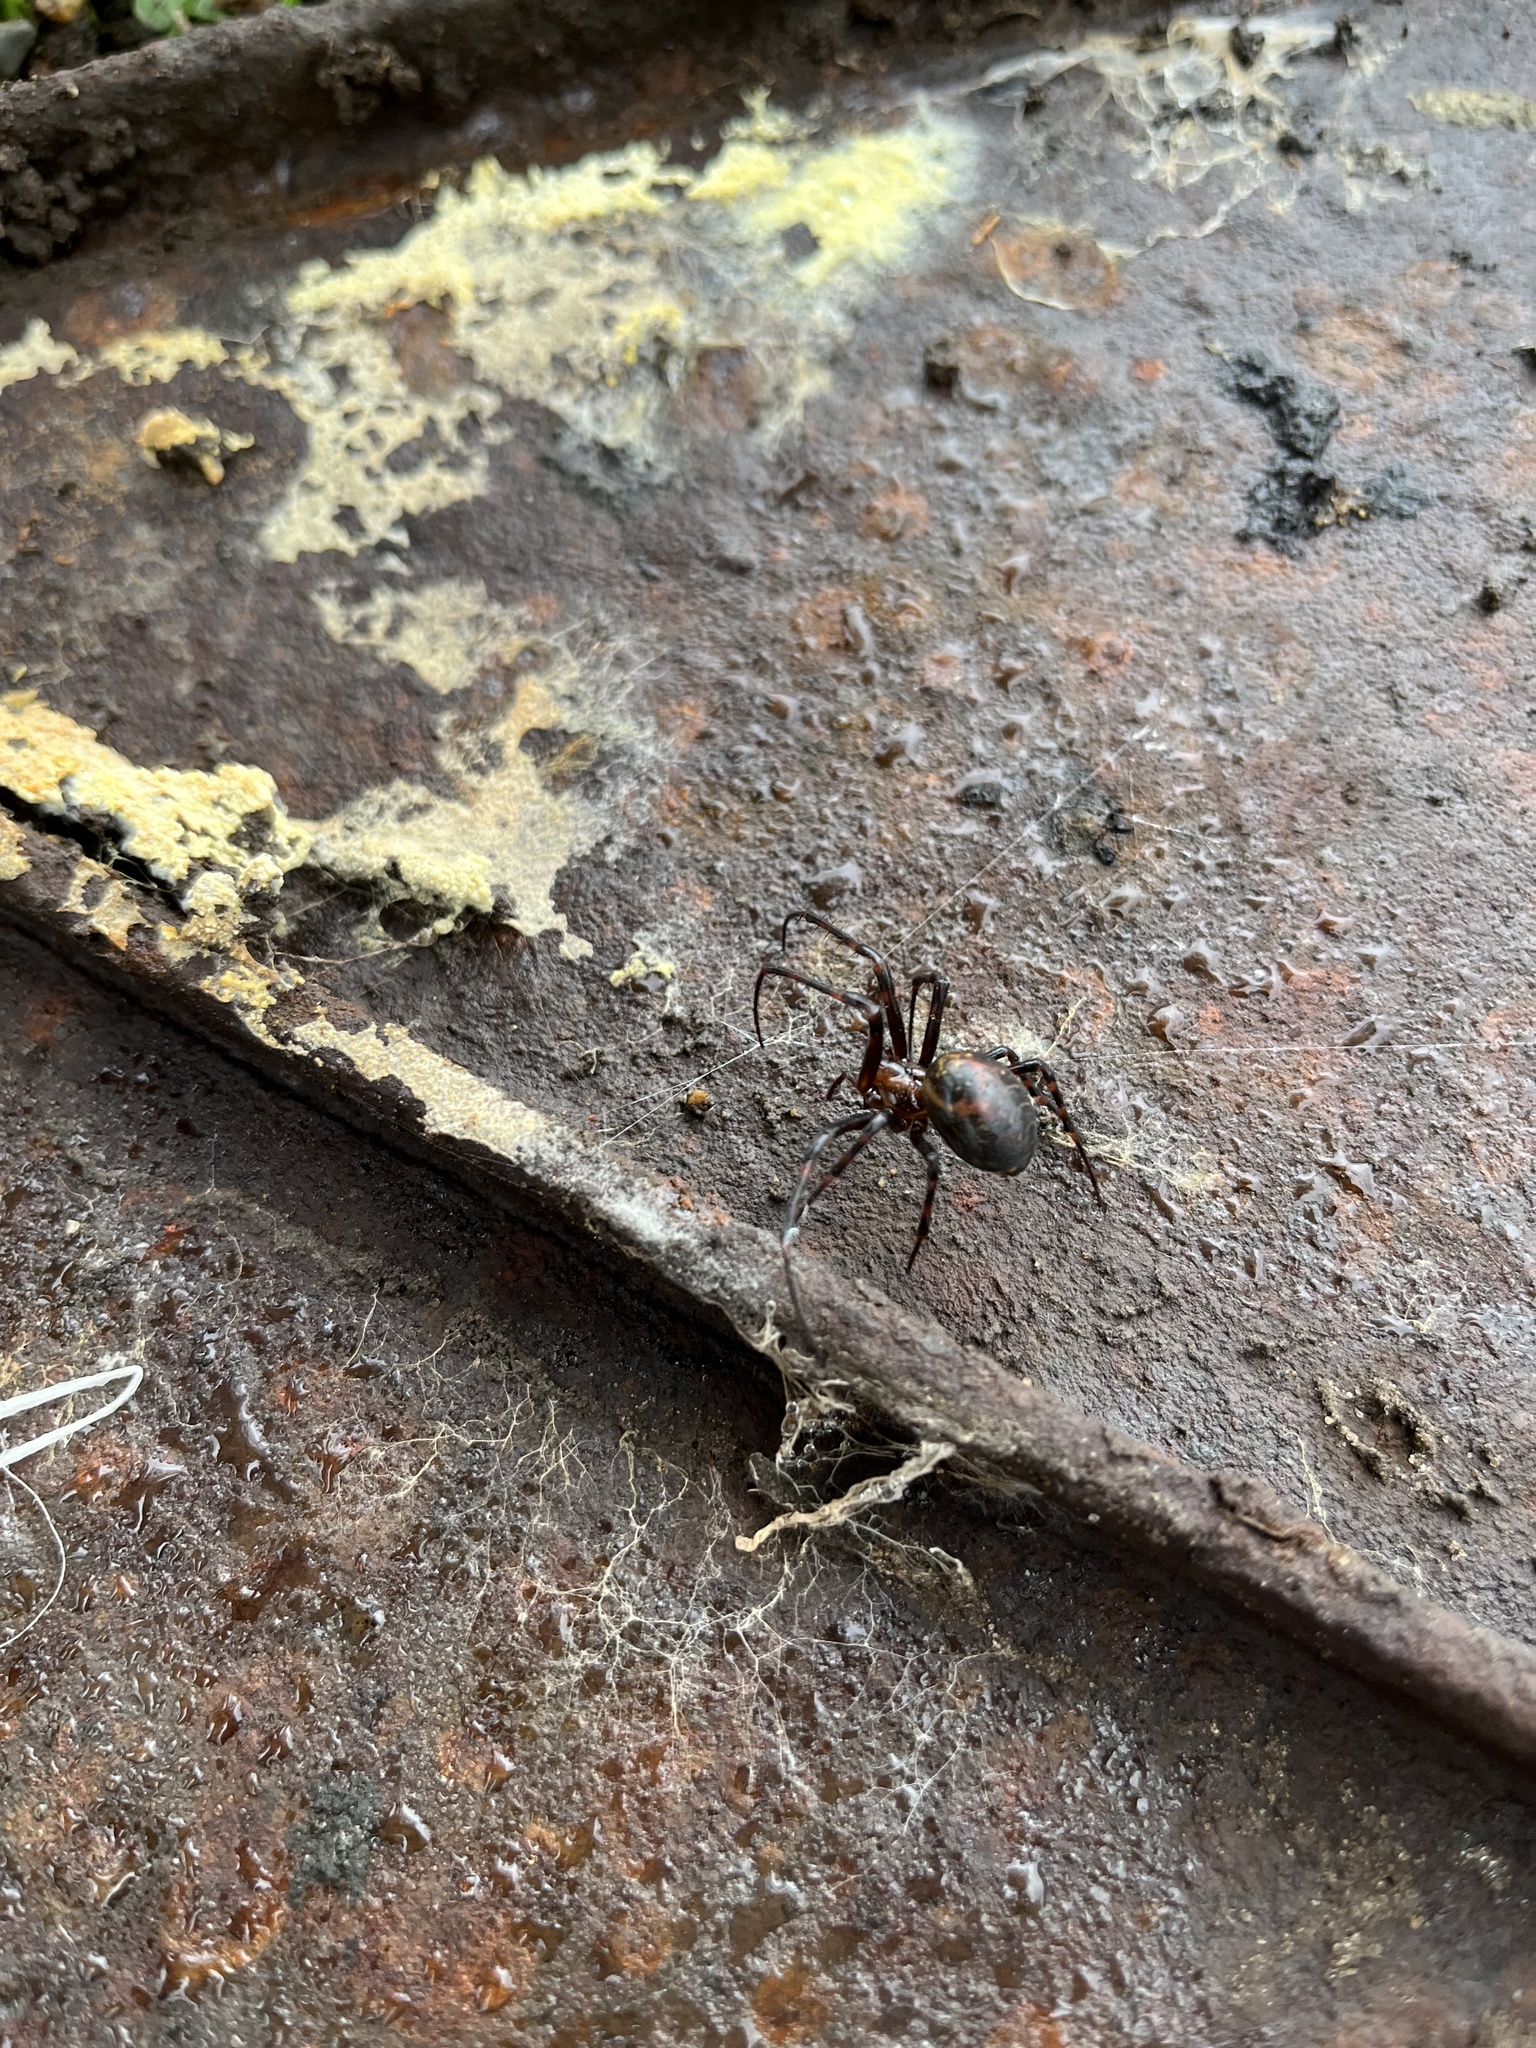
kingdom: Animalia
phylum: Arthropoda
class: Arachnida
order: Araneae
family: Tetragnathidae
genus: Meta
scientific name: Meta menardi
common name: Cave spider
